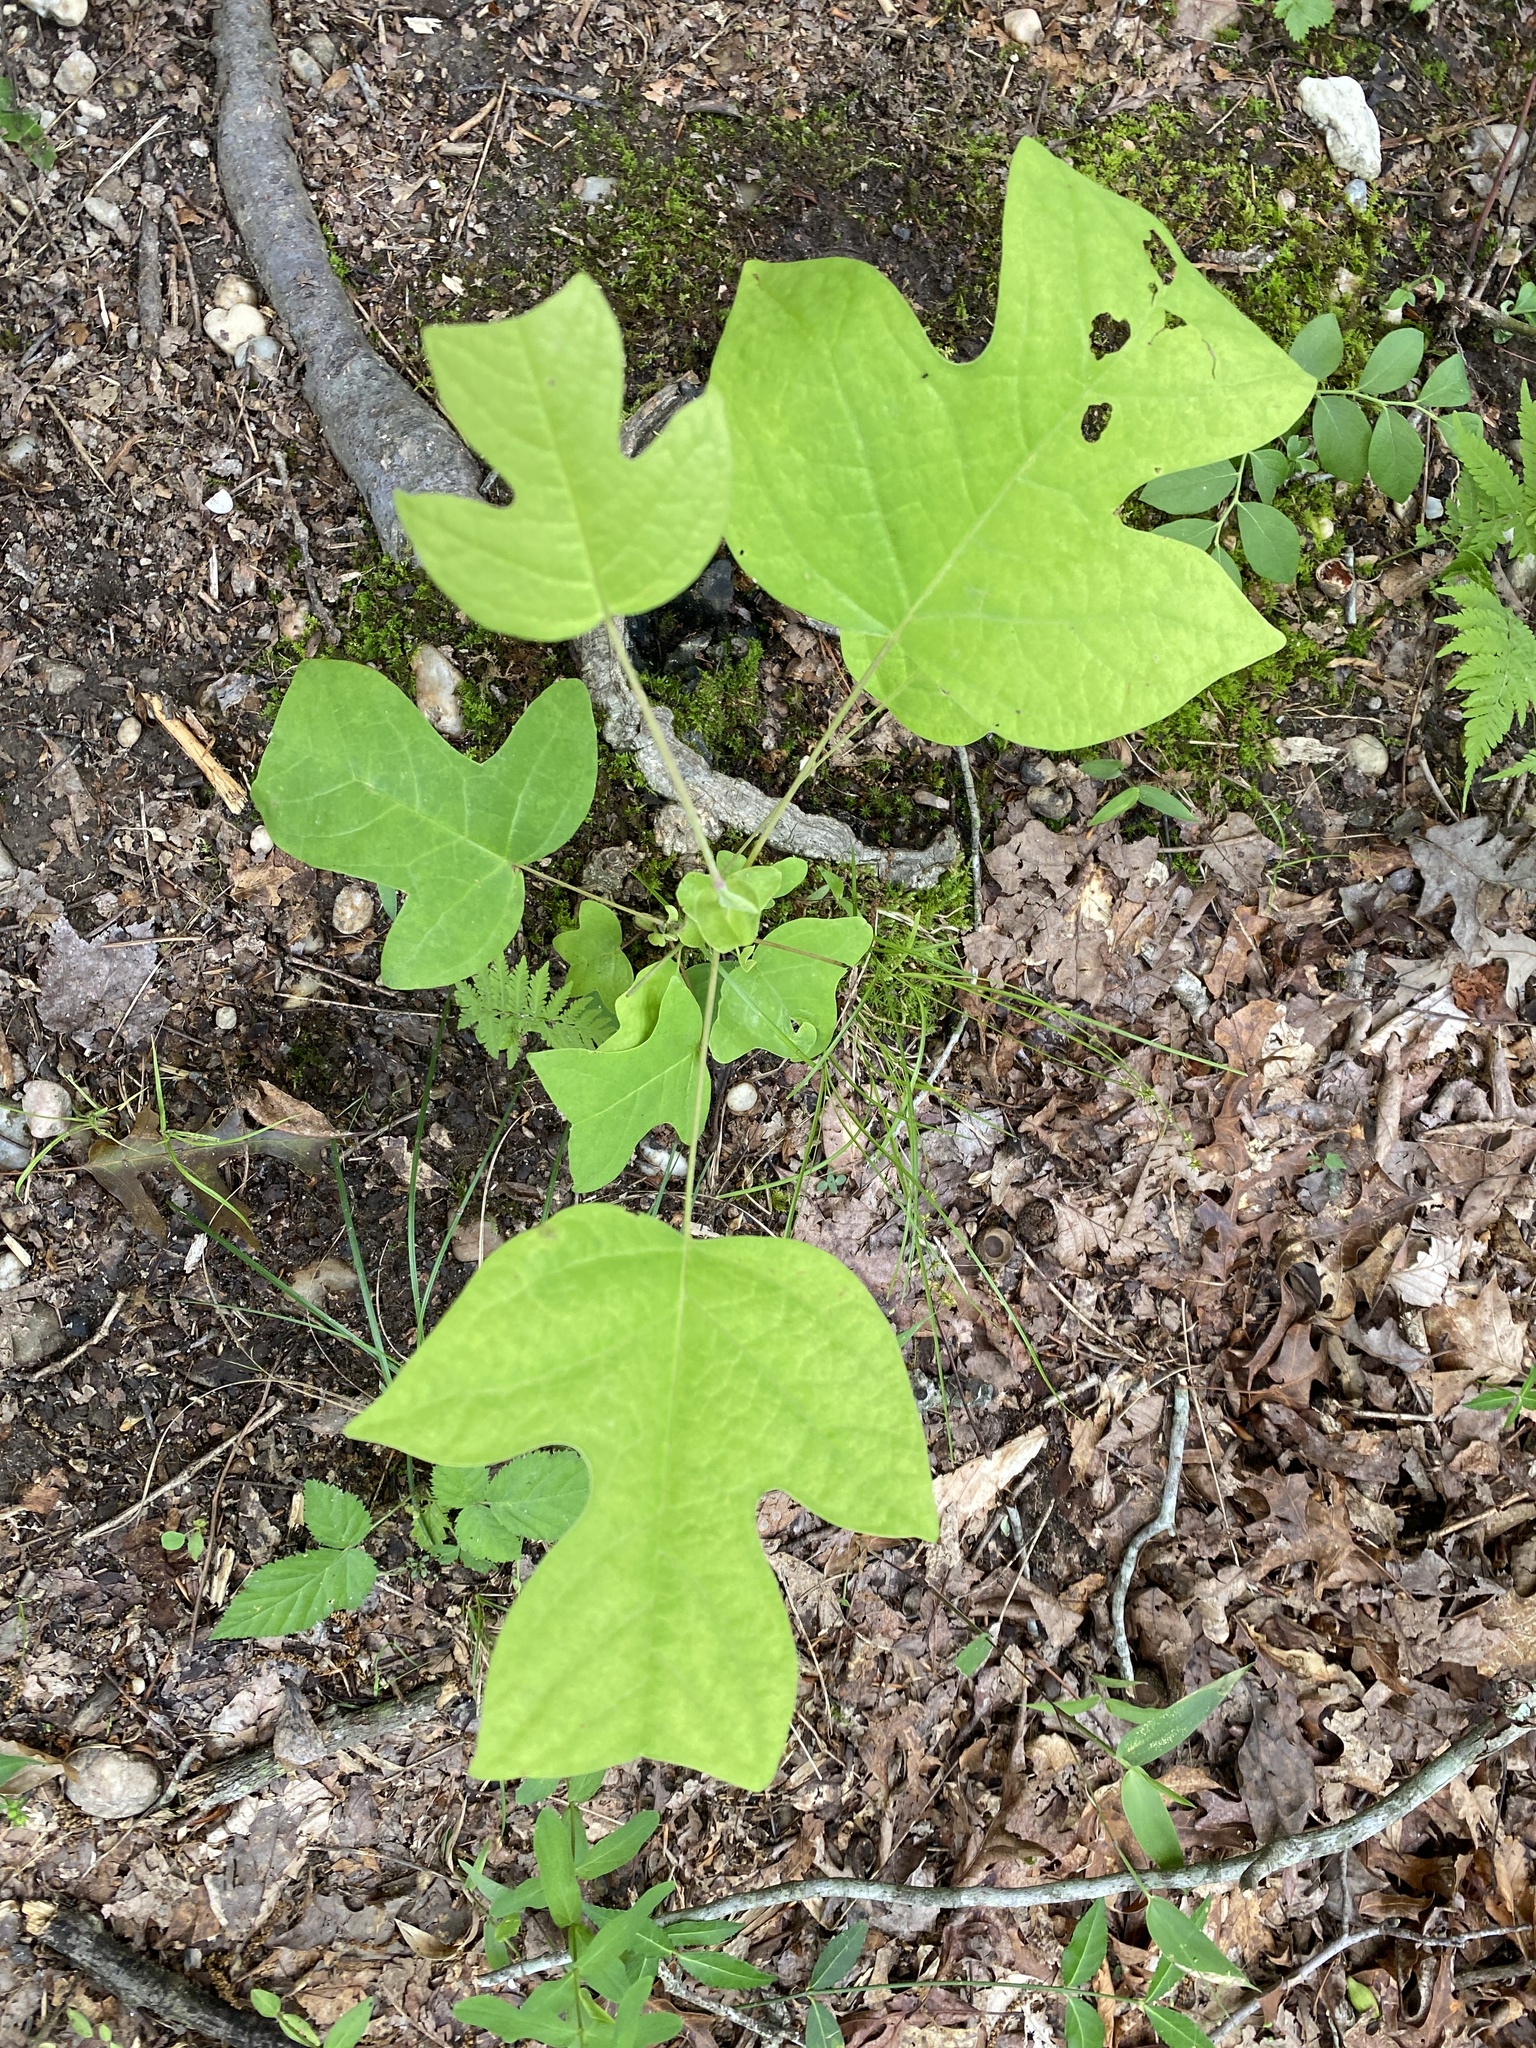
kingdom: Plantae
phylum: Tracheophyta
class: Magnoliopsida
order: Magnoliales
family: Magnoliaceae
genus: Liriodendron
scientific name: Liriodendron tulipifera
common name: Tulip tree
